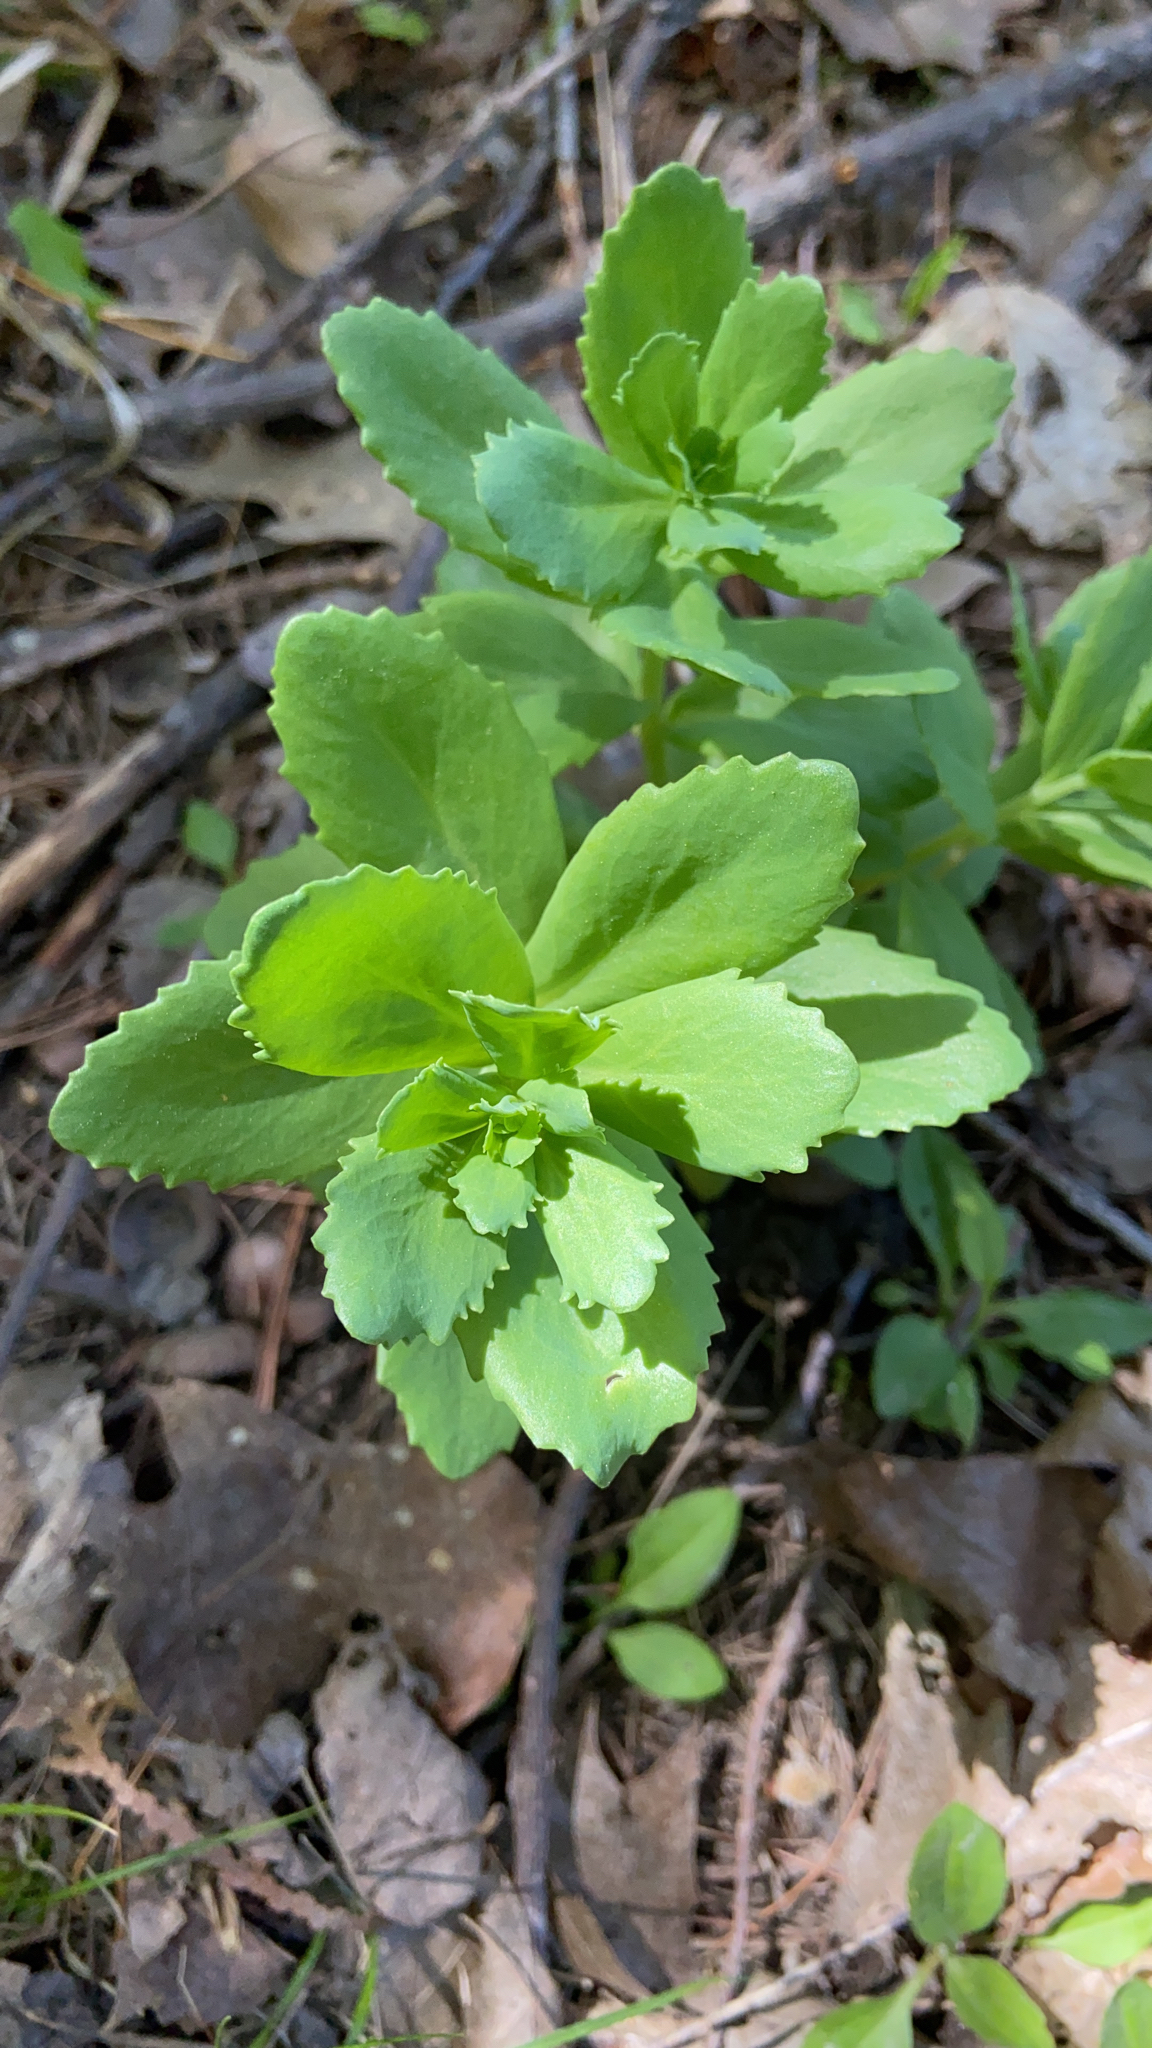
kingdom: Plantae
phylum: Tracheophyta
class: Magnoliopsida
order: Saxifragales
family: Crassulaceae
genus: Hylotelephium
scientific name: Hylotelephium telephium
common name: Live-forever
